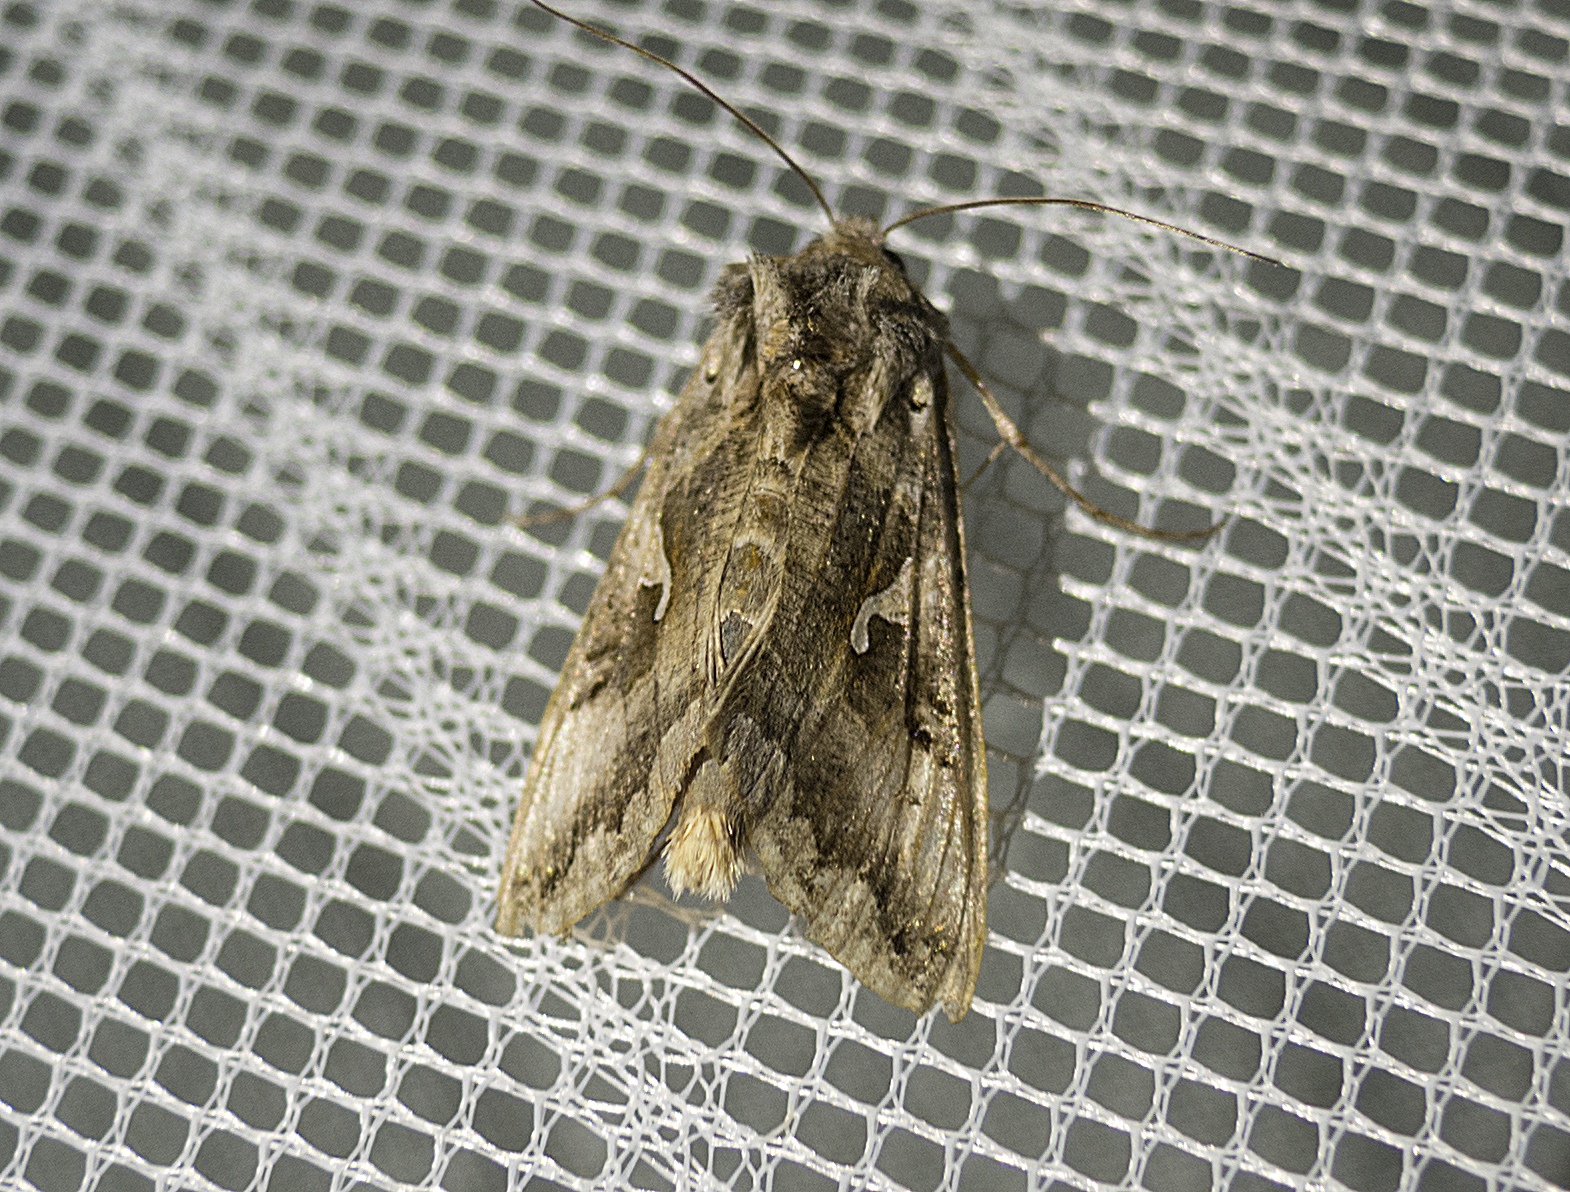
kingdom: Animalia
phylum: Arthropoda
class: Insecta
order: Lepidoptera
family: Noctuidae
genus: Autographa
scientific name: Autographa gamma
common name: Silver y
